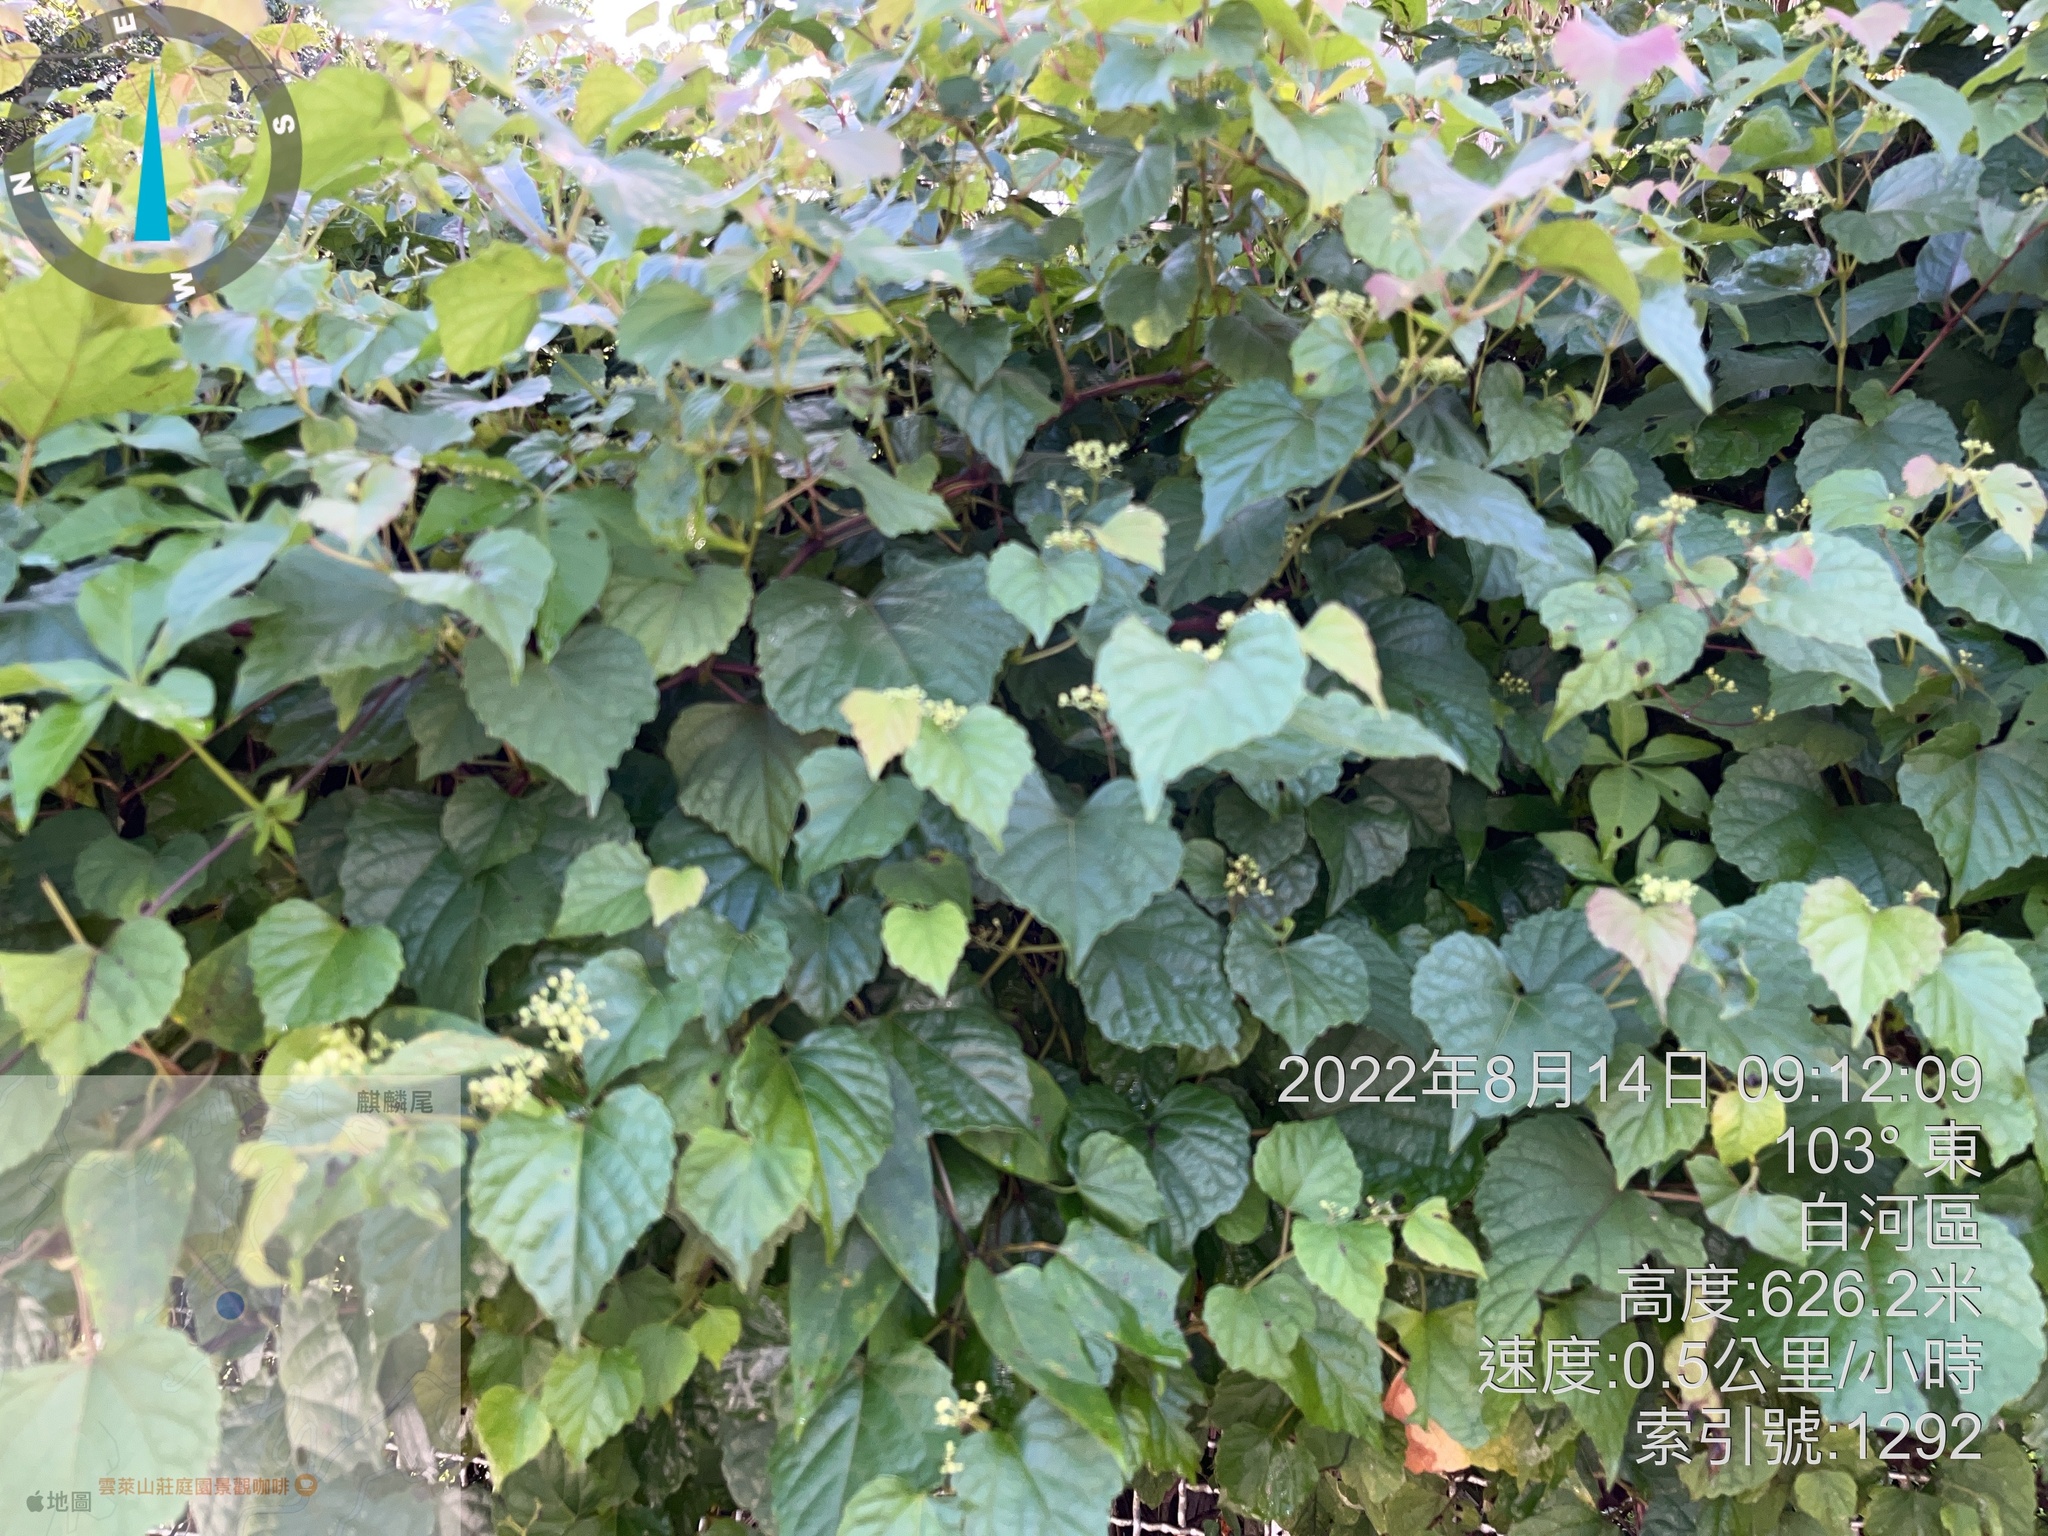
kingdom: Plantae
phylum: Tracheophyta
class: Magnoliopsida
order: Vitales
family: Vitaceae
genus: Ampelopsis
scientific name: Ampelopsis glandulosa
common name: Amur peppervine
